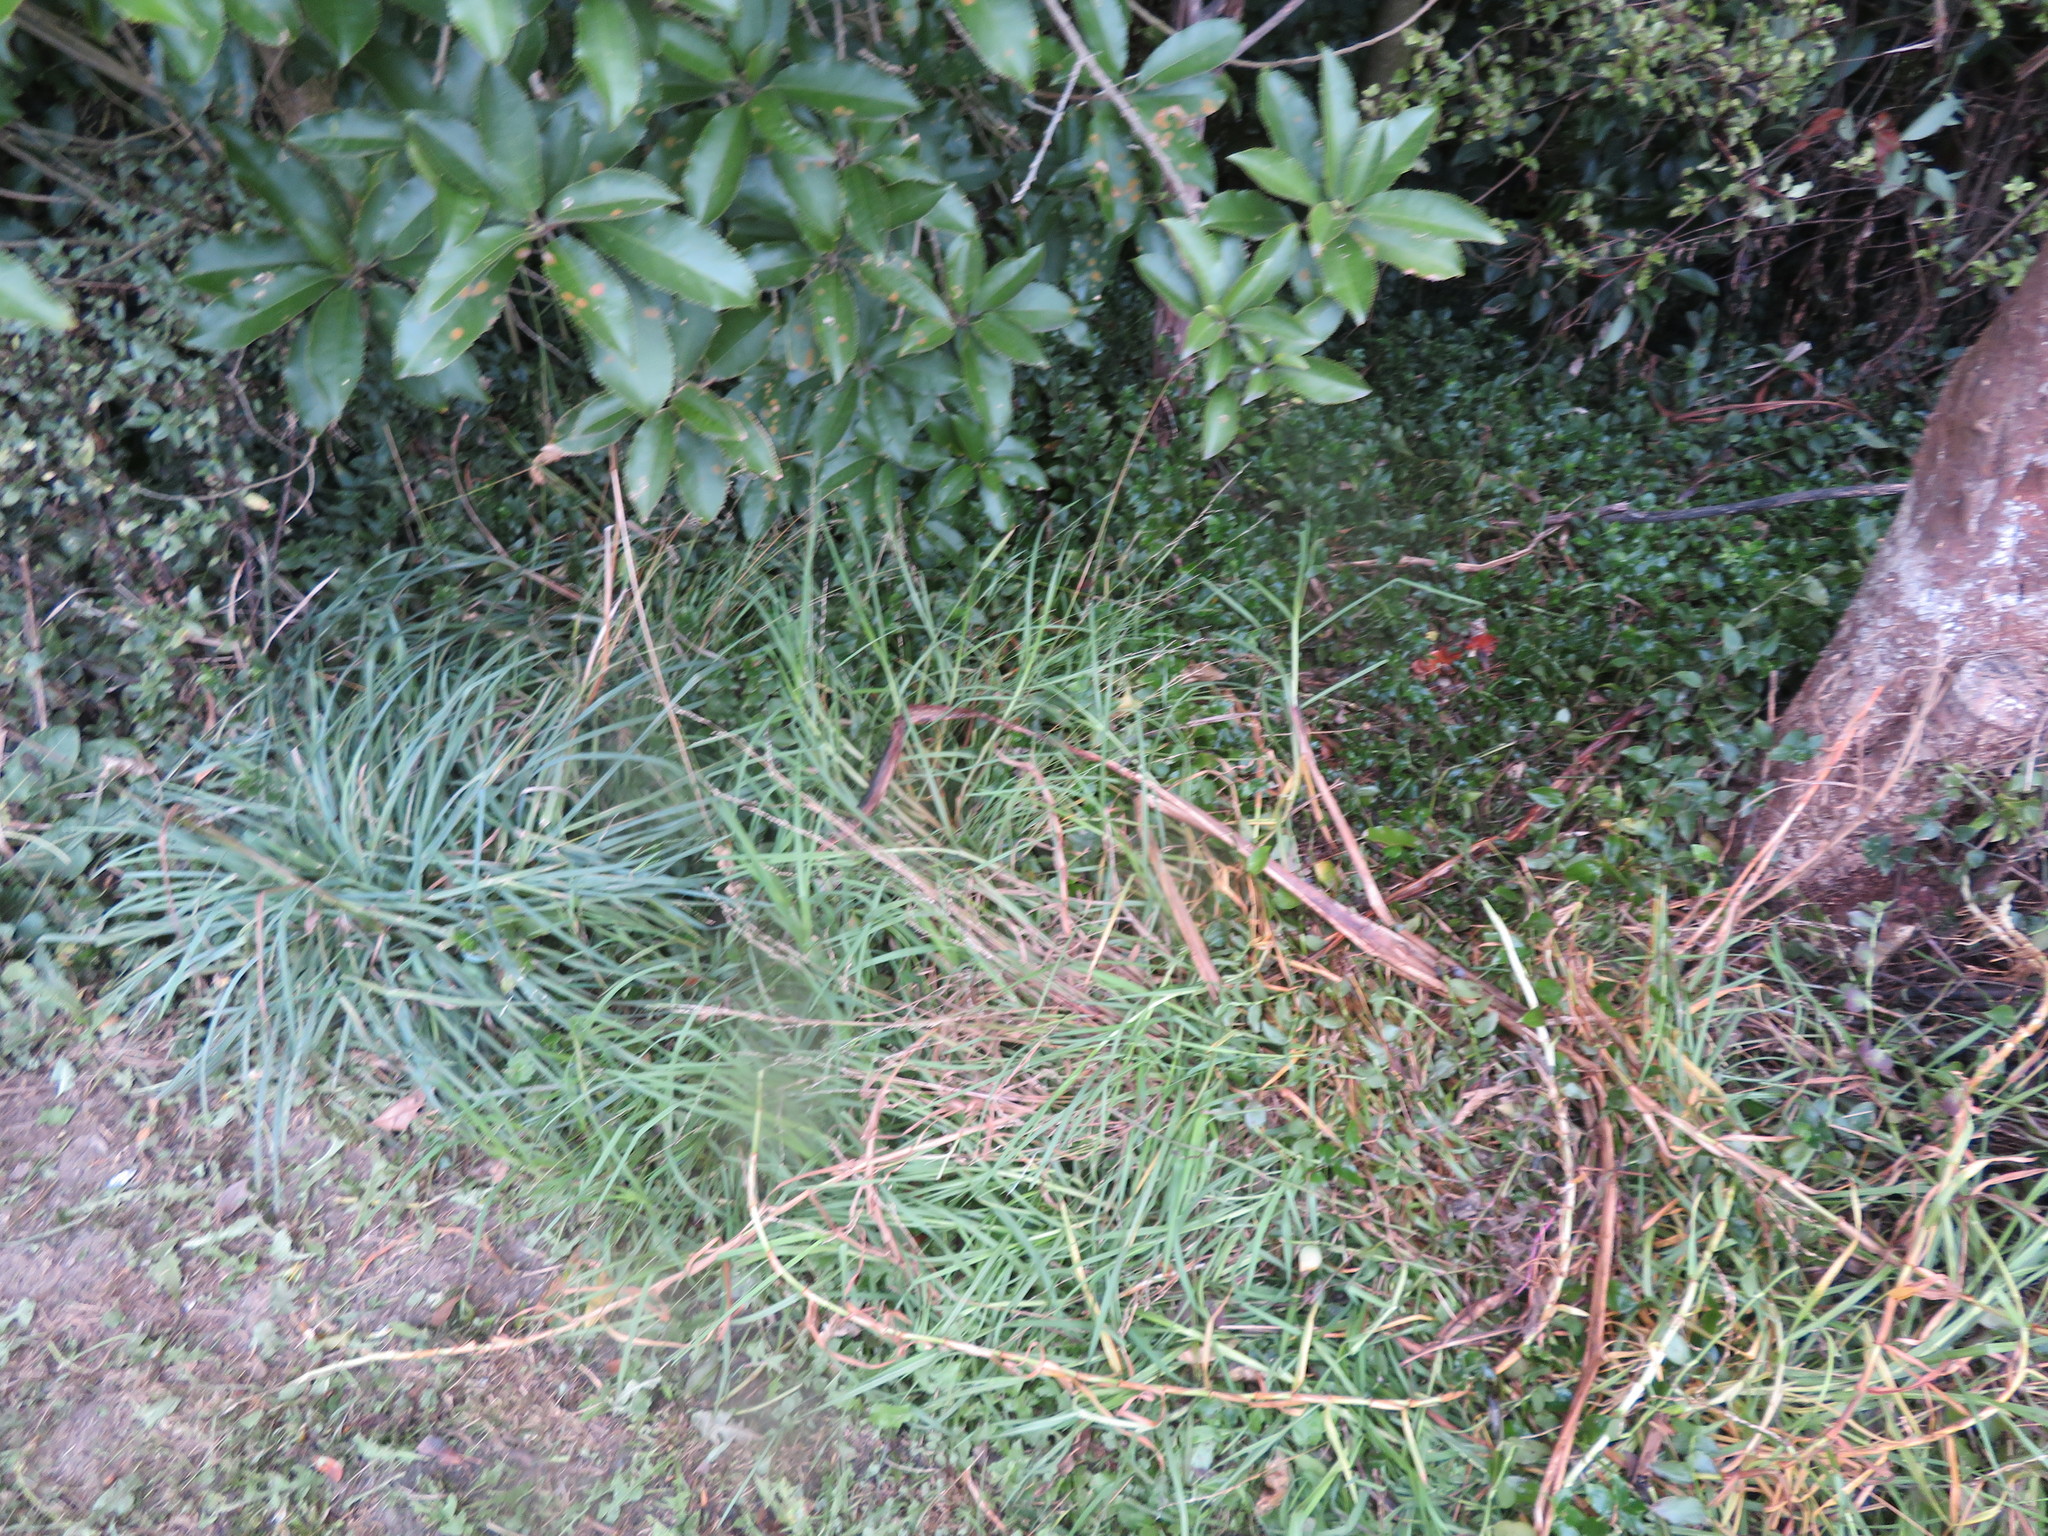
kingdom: Plantae
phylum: Tracheophyta
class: Liliopsida
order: Poales
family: Poaceae
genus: Dactylis
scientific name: Dactylis glomerata
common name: Orchardgrass
